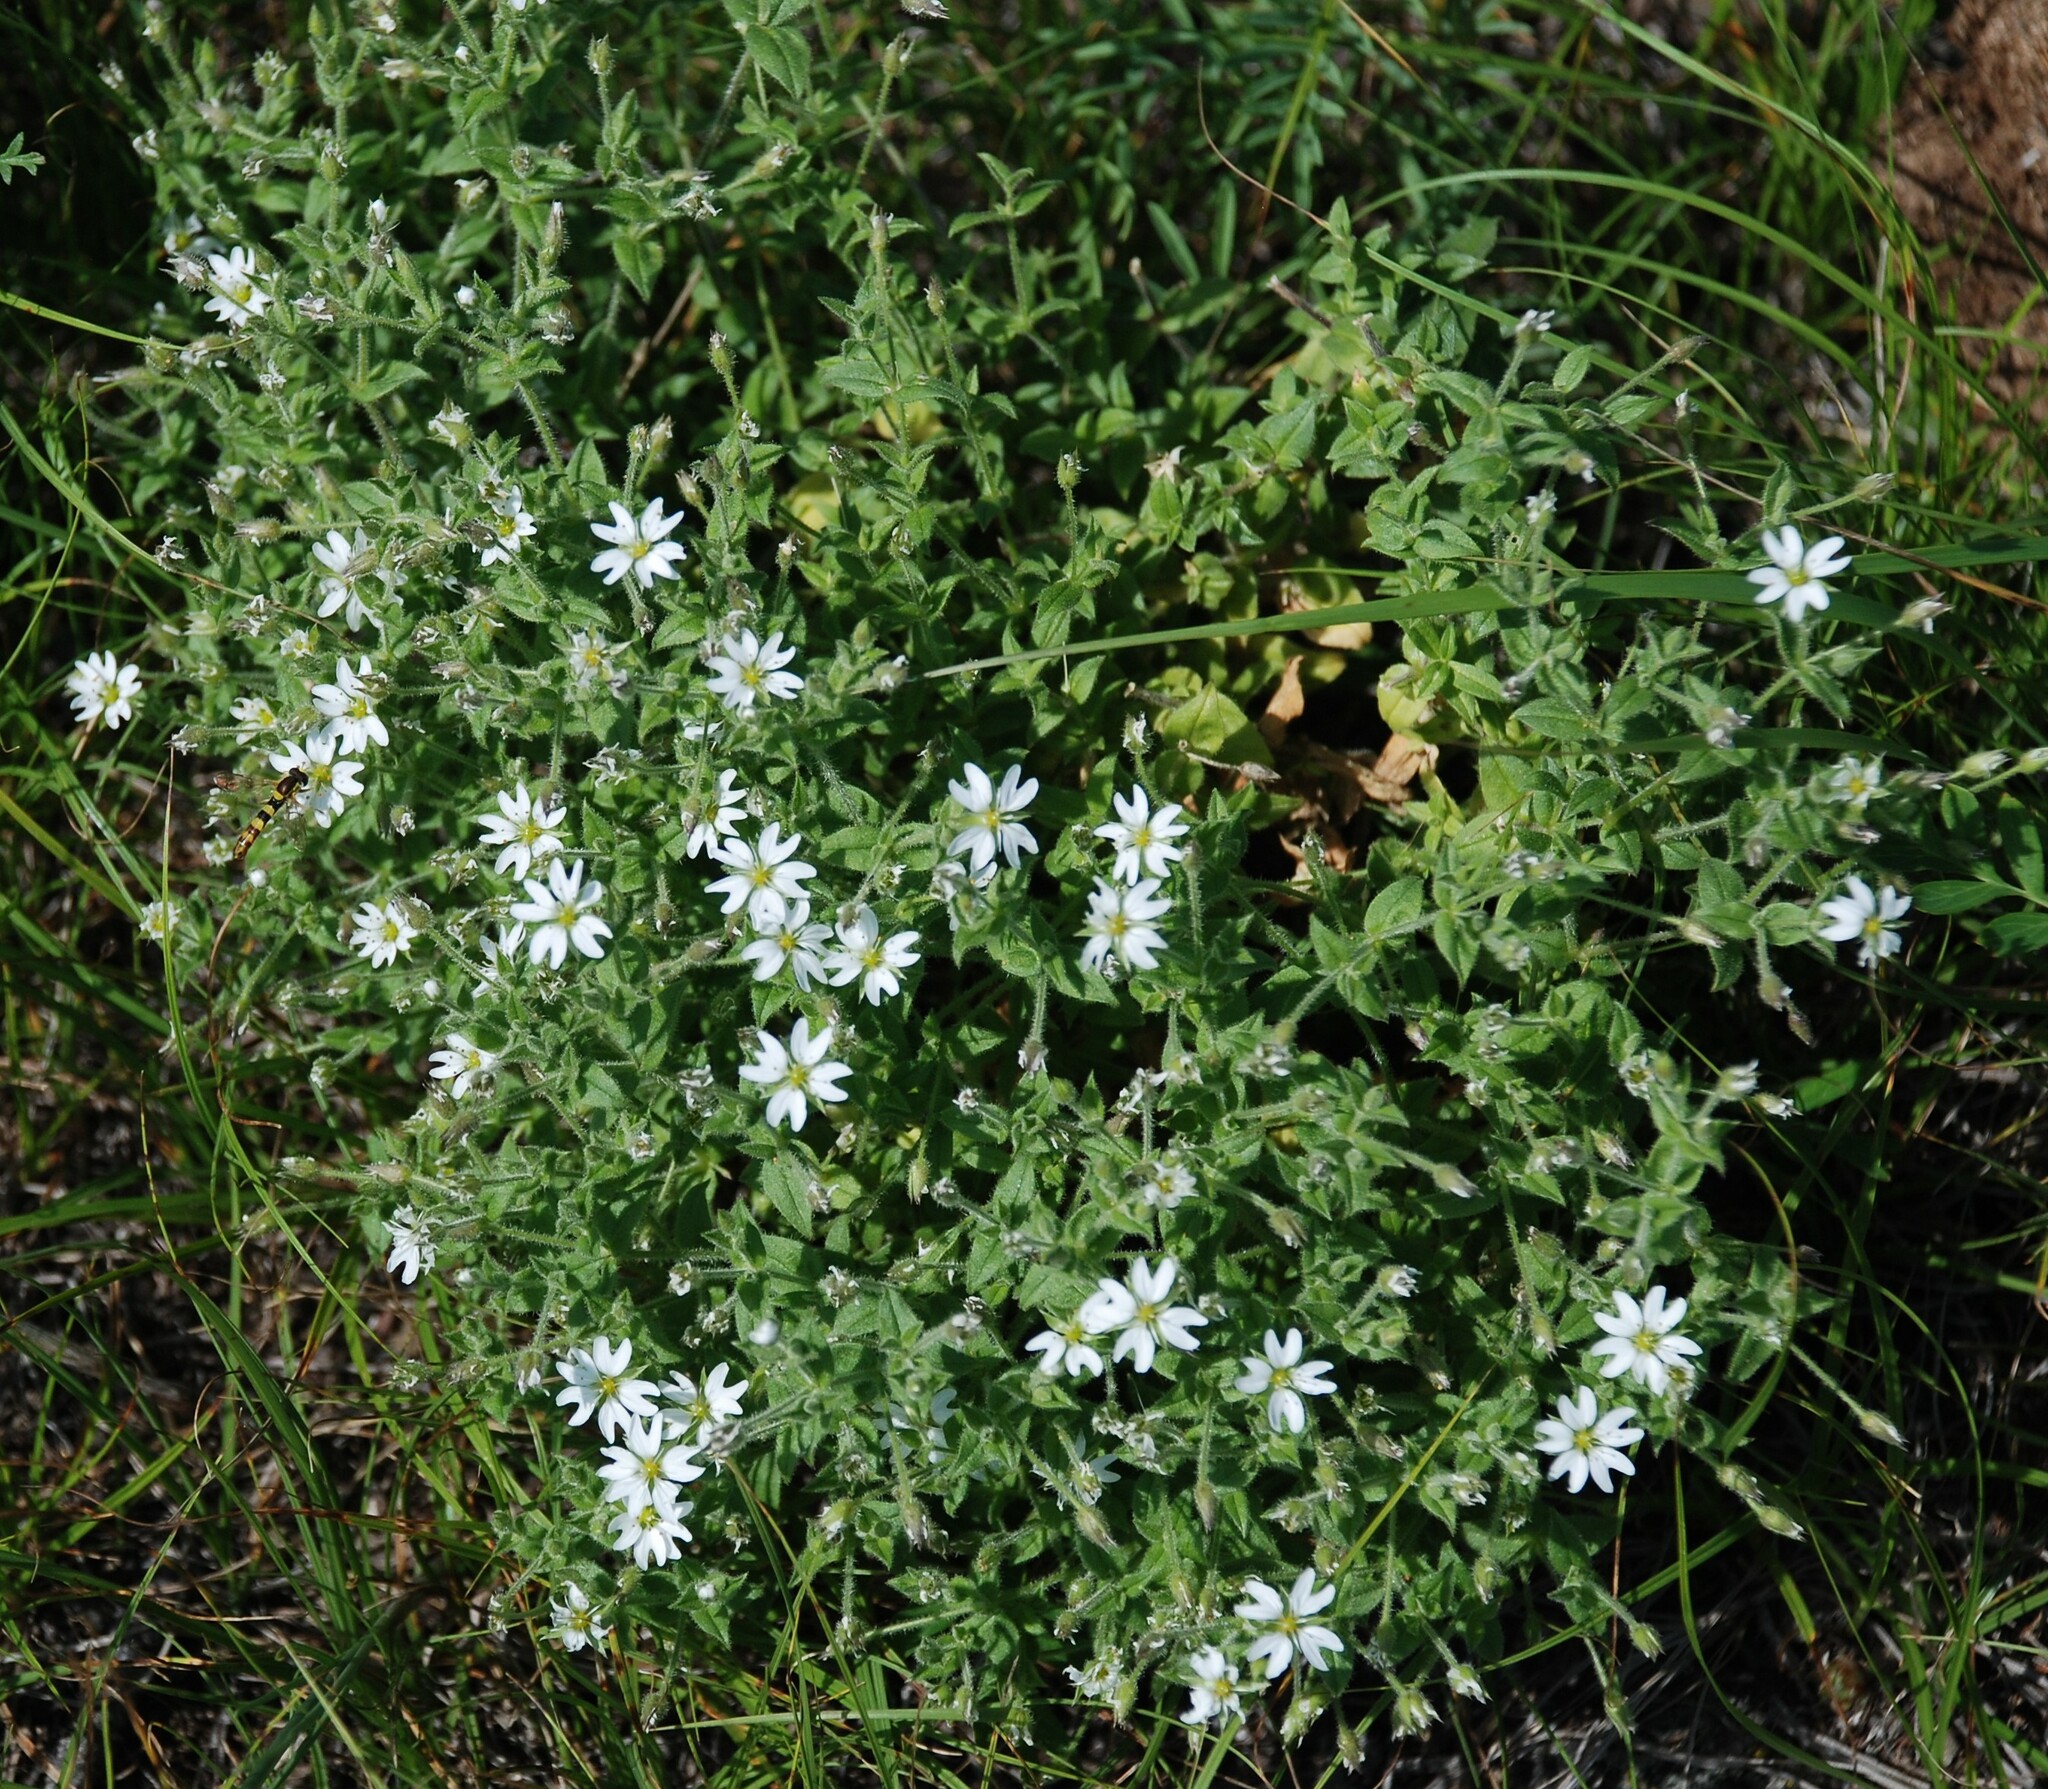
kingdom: Plantae
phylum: Tracheophyta
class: Magnoliopsida
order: Caryophyllales
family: Caryophyllaceae
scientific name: Caryophyllaceae
